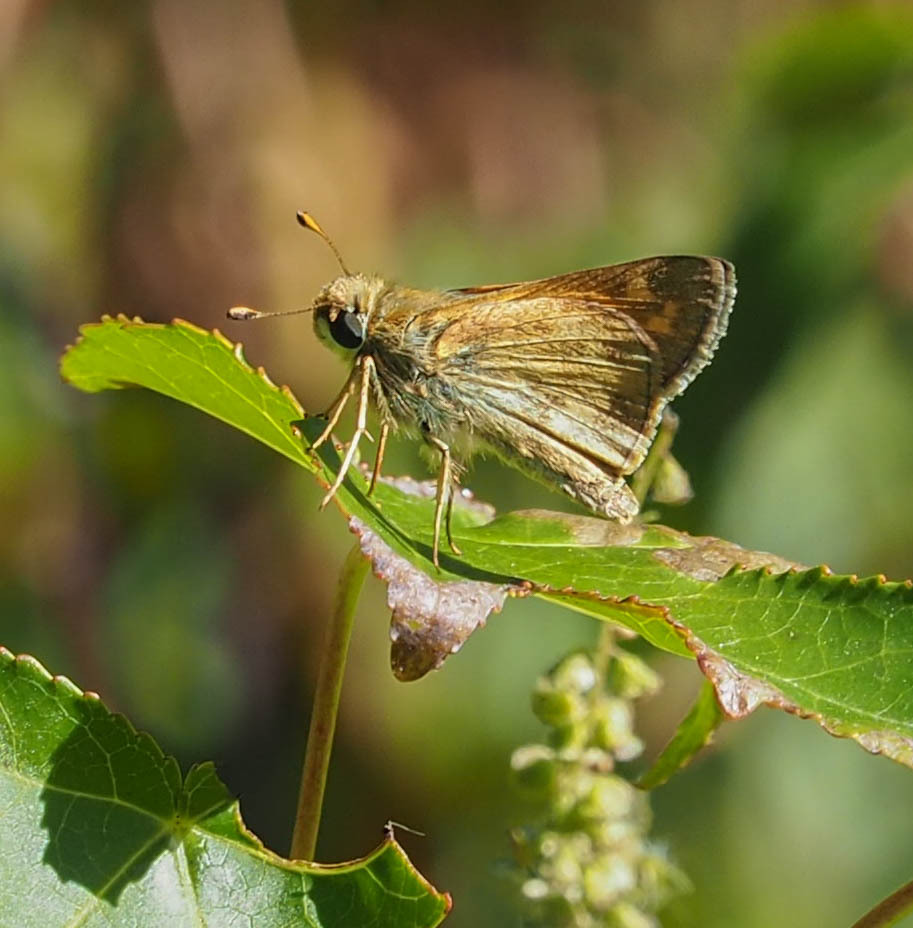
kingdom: Animalia
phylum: Arthropoda
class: Insecta
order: Lepidoptera
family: Hesperiidae
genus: Atalopedes
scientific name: Atalopedes
